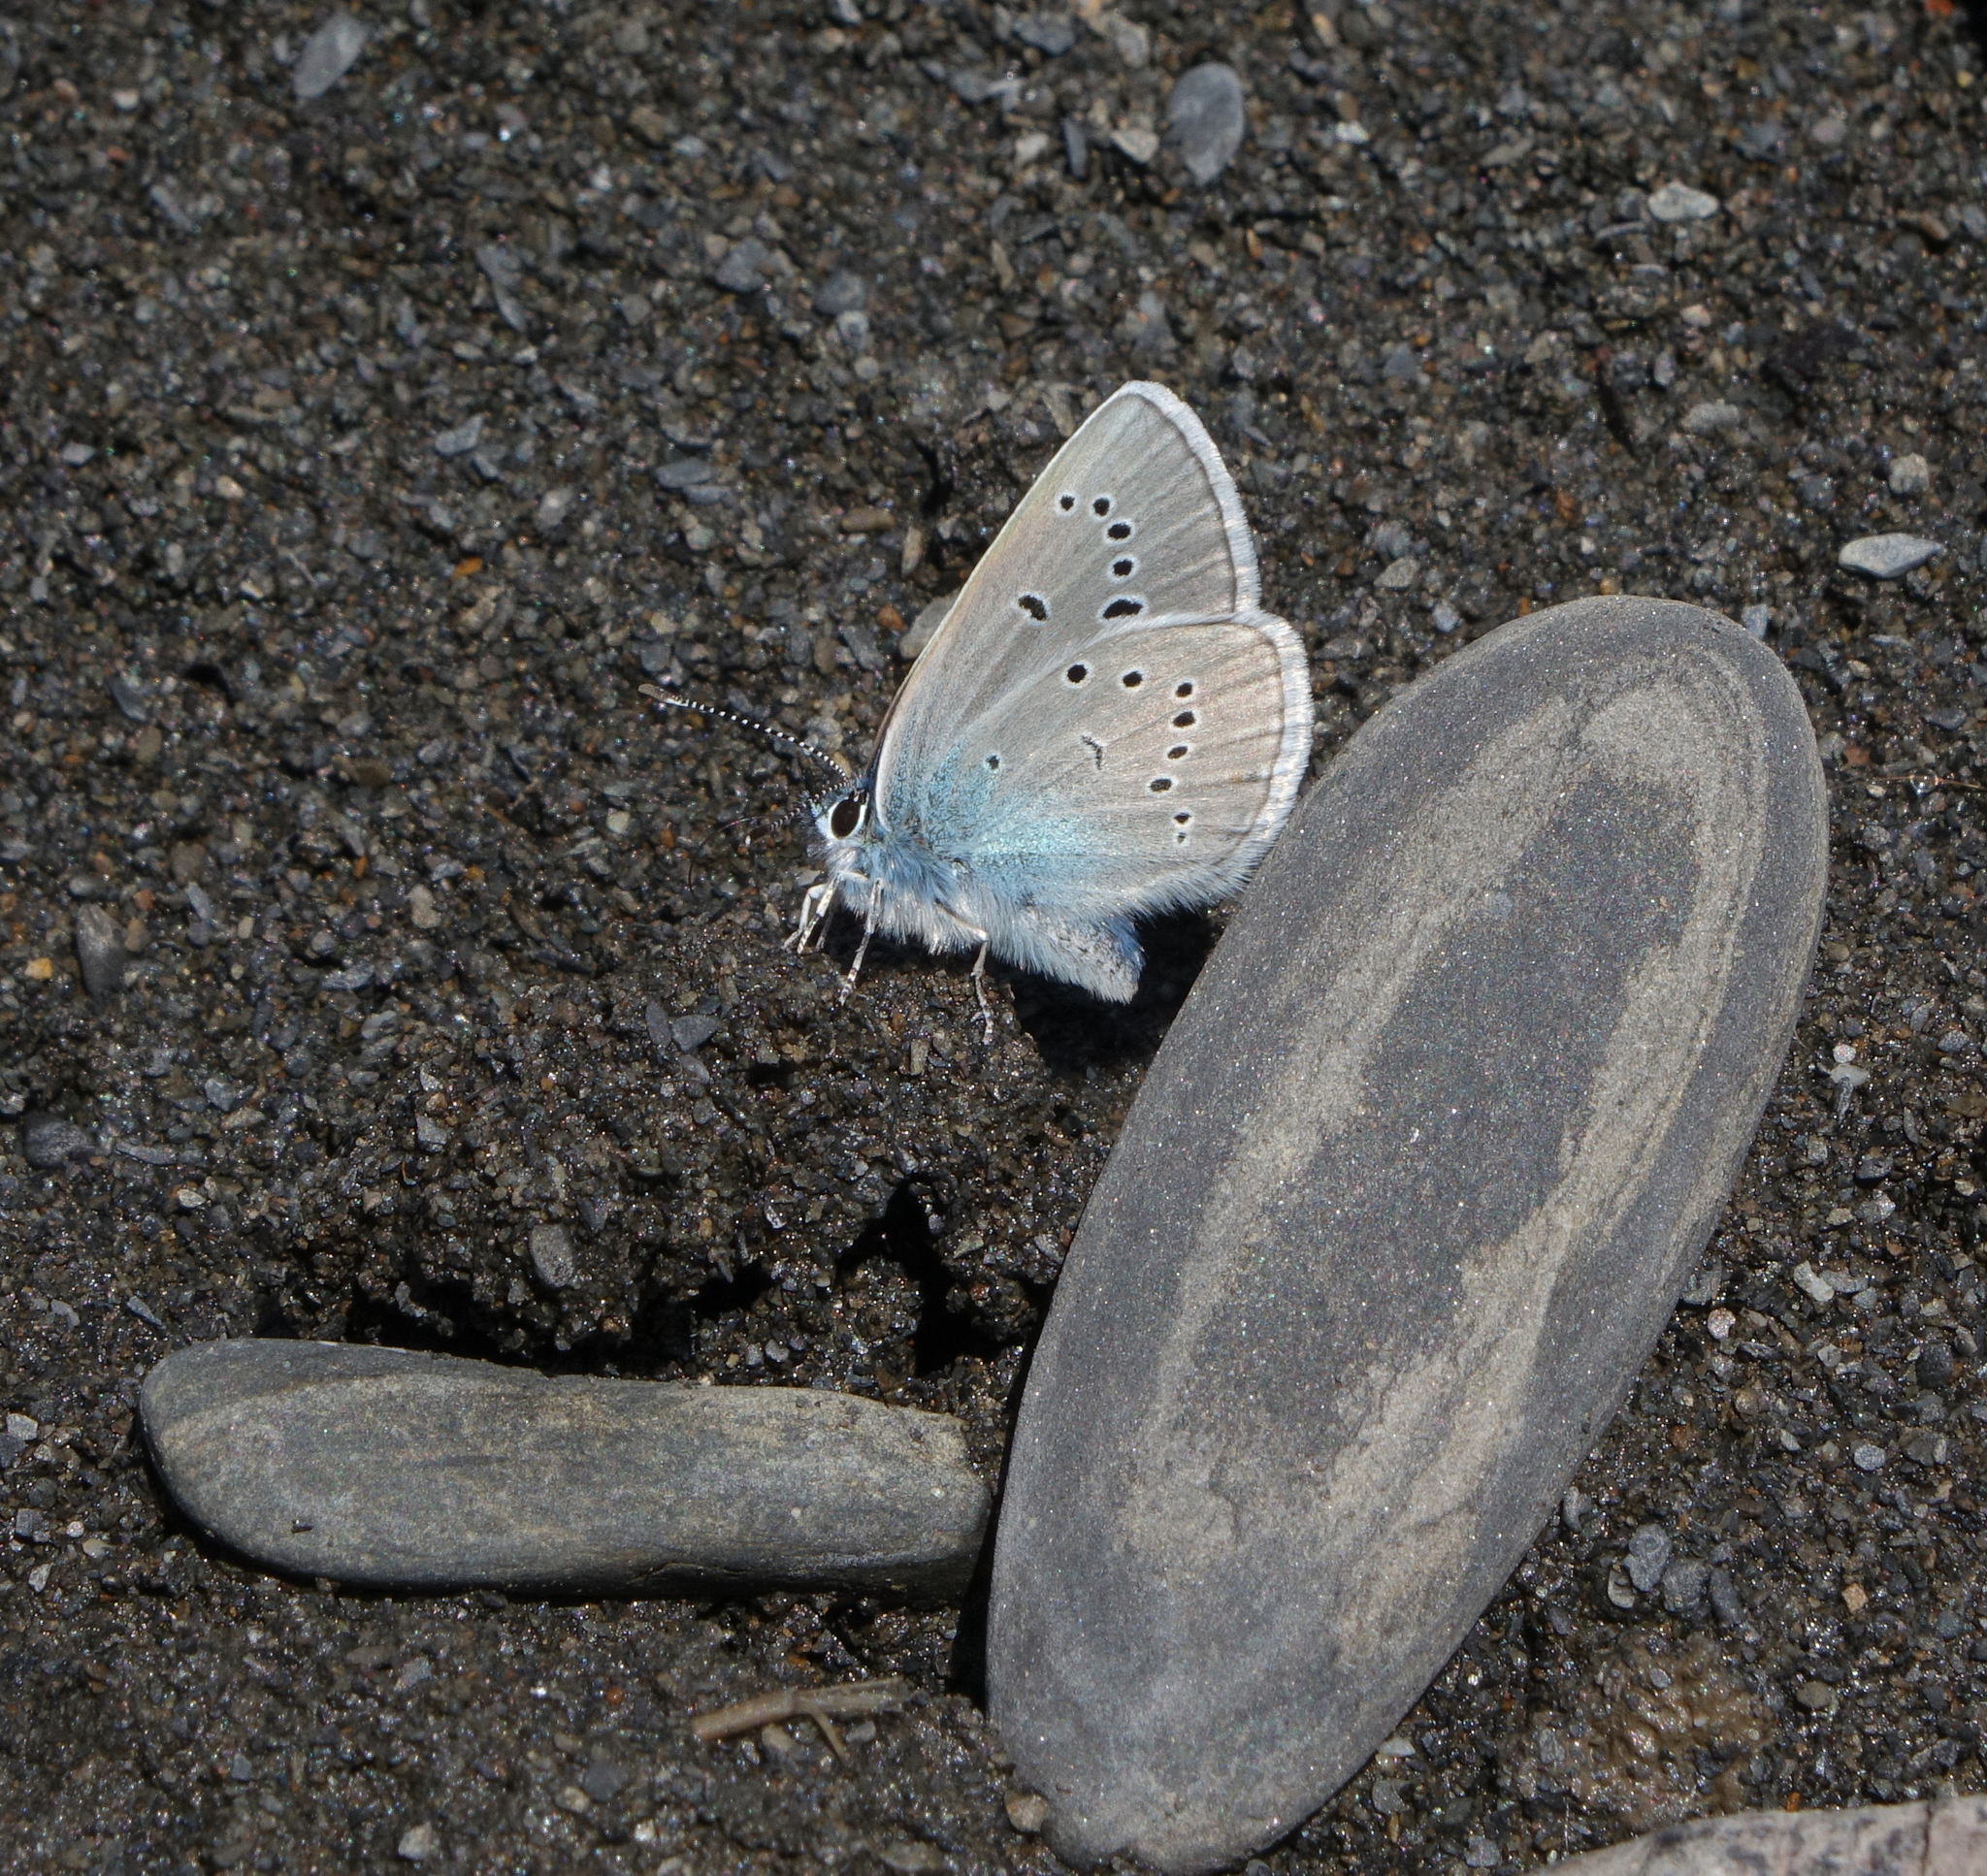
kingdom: Animalia
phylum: Arthropoda
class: Insecta
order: Lepidoptera
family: Lycaenidae
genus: Cyaniris
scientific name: Cyaniris semiargus
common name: Mazarine blue
